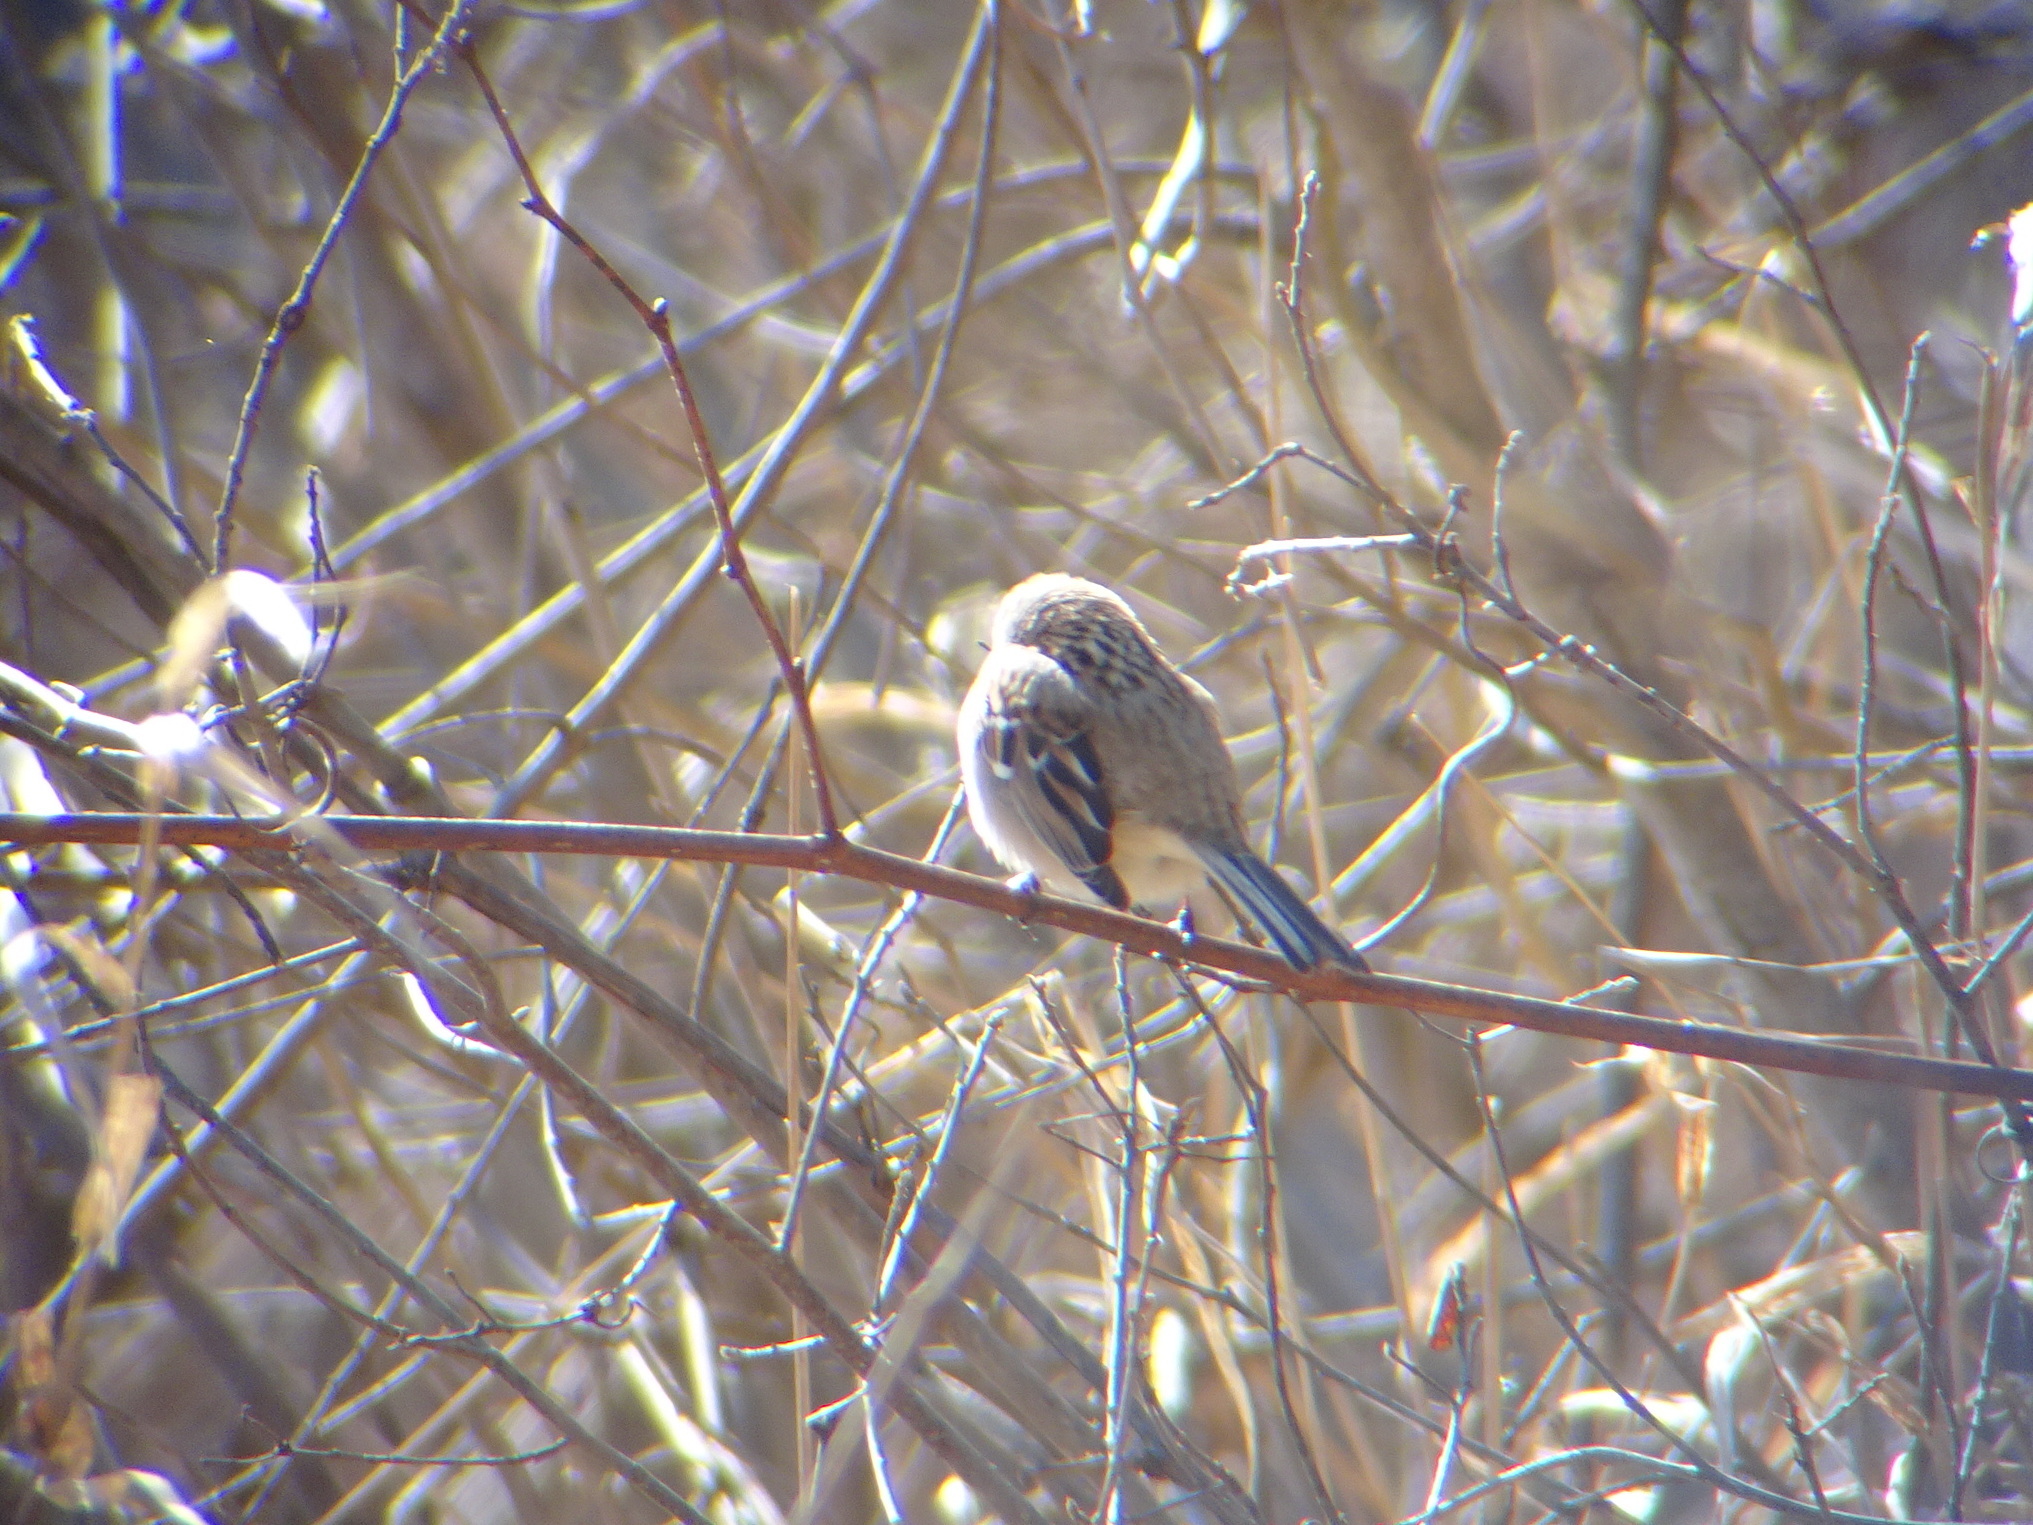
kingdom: Animalia
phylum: Chordata
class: Aves
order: Passeriformes
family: Passerellidae
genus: Spizelloides
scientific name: Spizelloides arborea
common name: American tree sparrow
